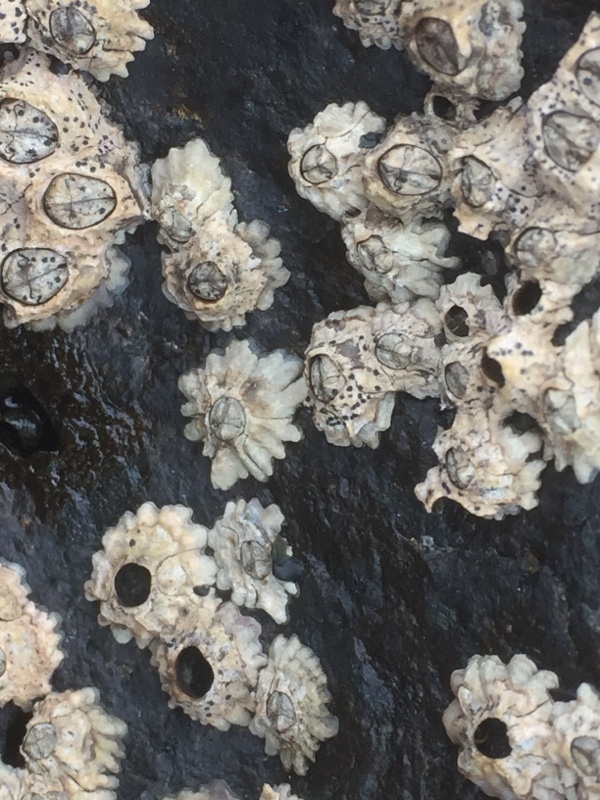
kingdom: Animalia
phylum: Arthropoda
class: Maxillopoda
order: Sessilia
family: Chthamalidae
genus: Chthamalus
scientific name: Chthamalus stellatus
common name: Poli's stellate barnacle
